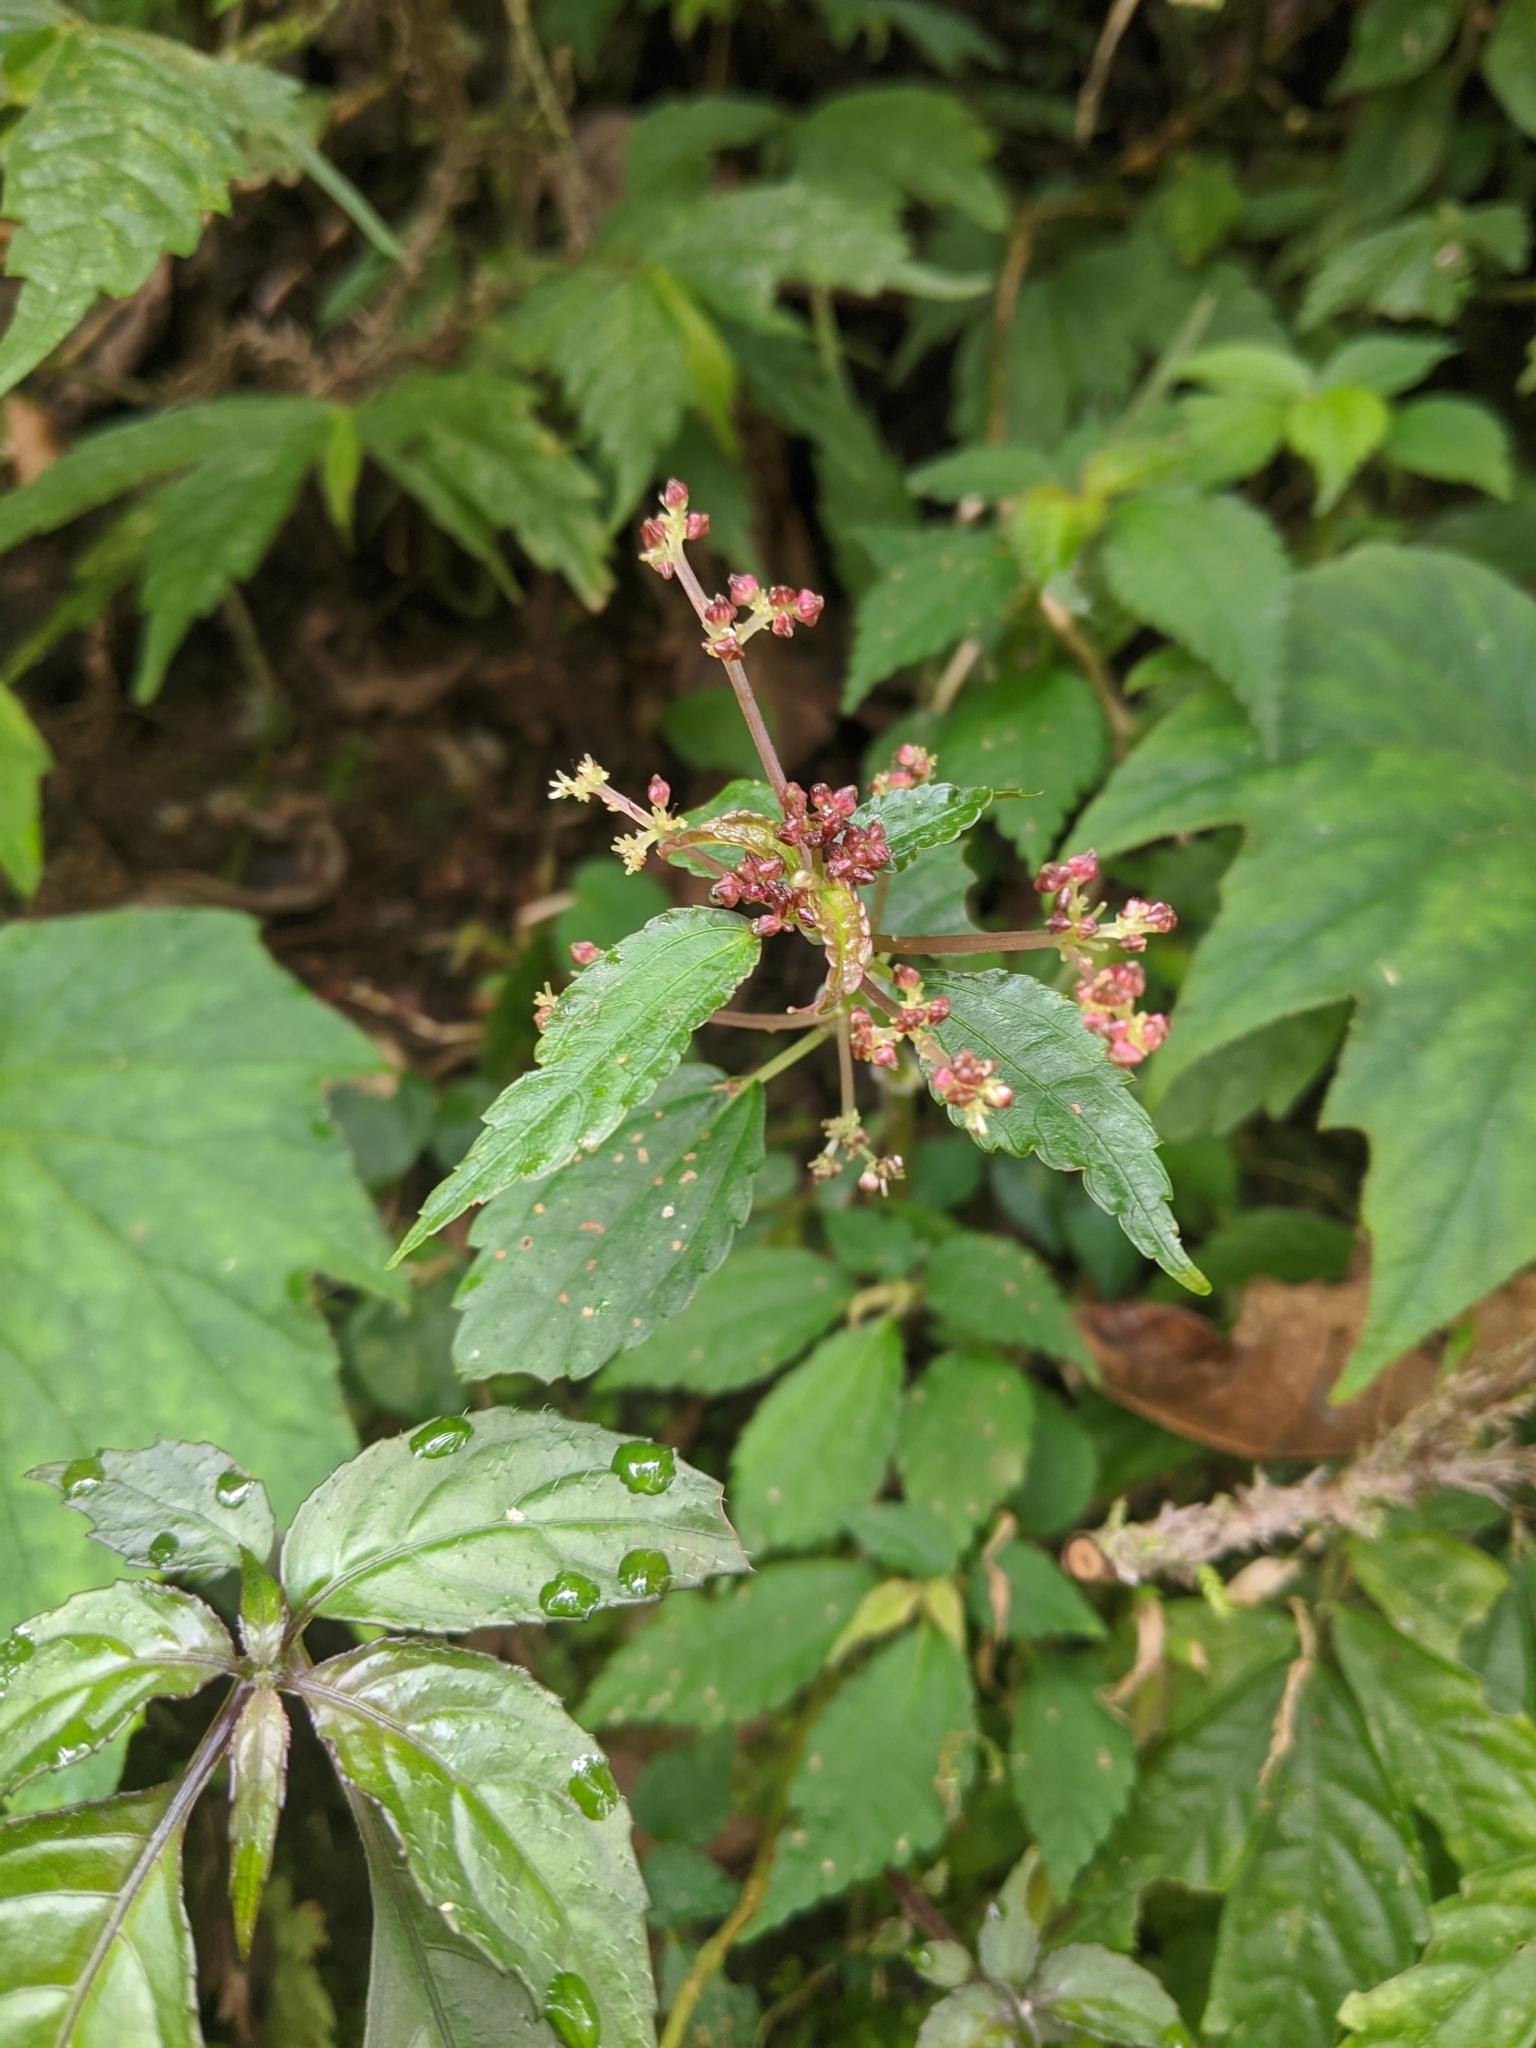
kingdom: Plantae
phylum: Tracheophyta
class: Magnoliopsida
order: Rosales
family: Urticaceae
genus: Pilea
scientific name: Pilea brevicornuta
